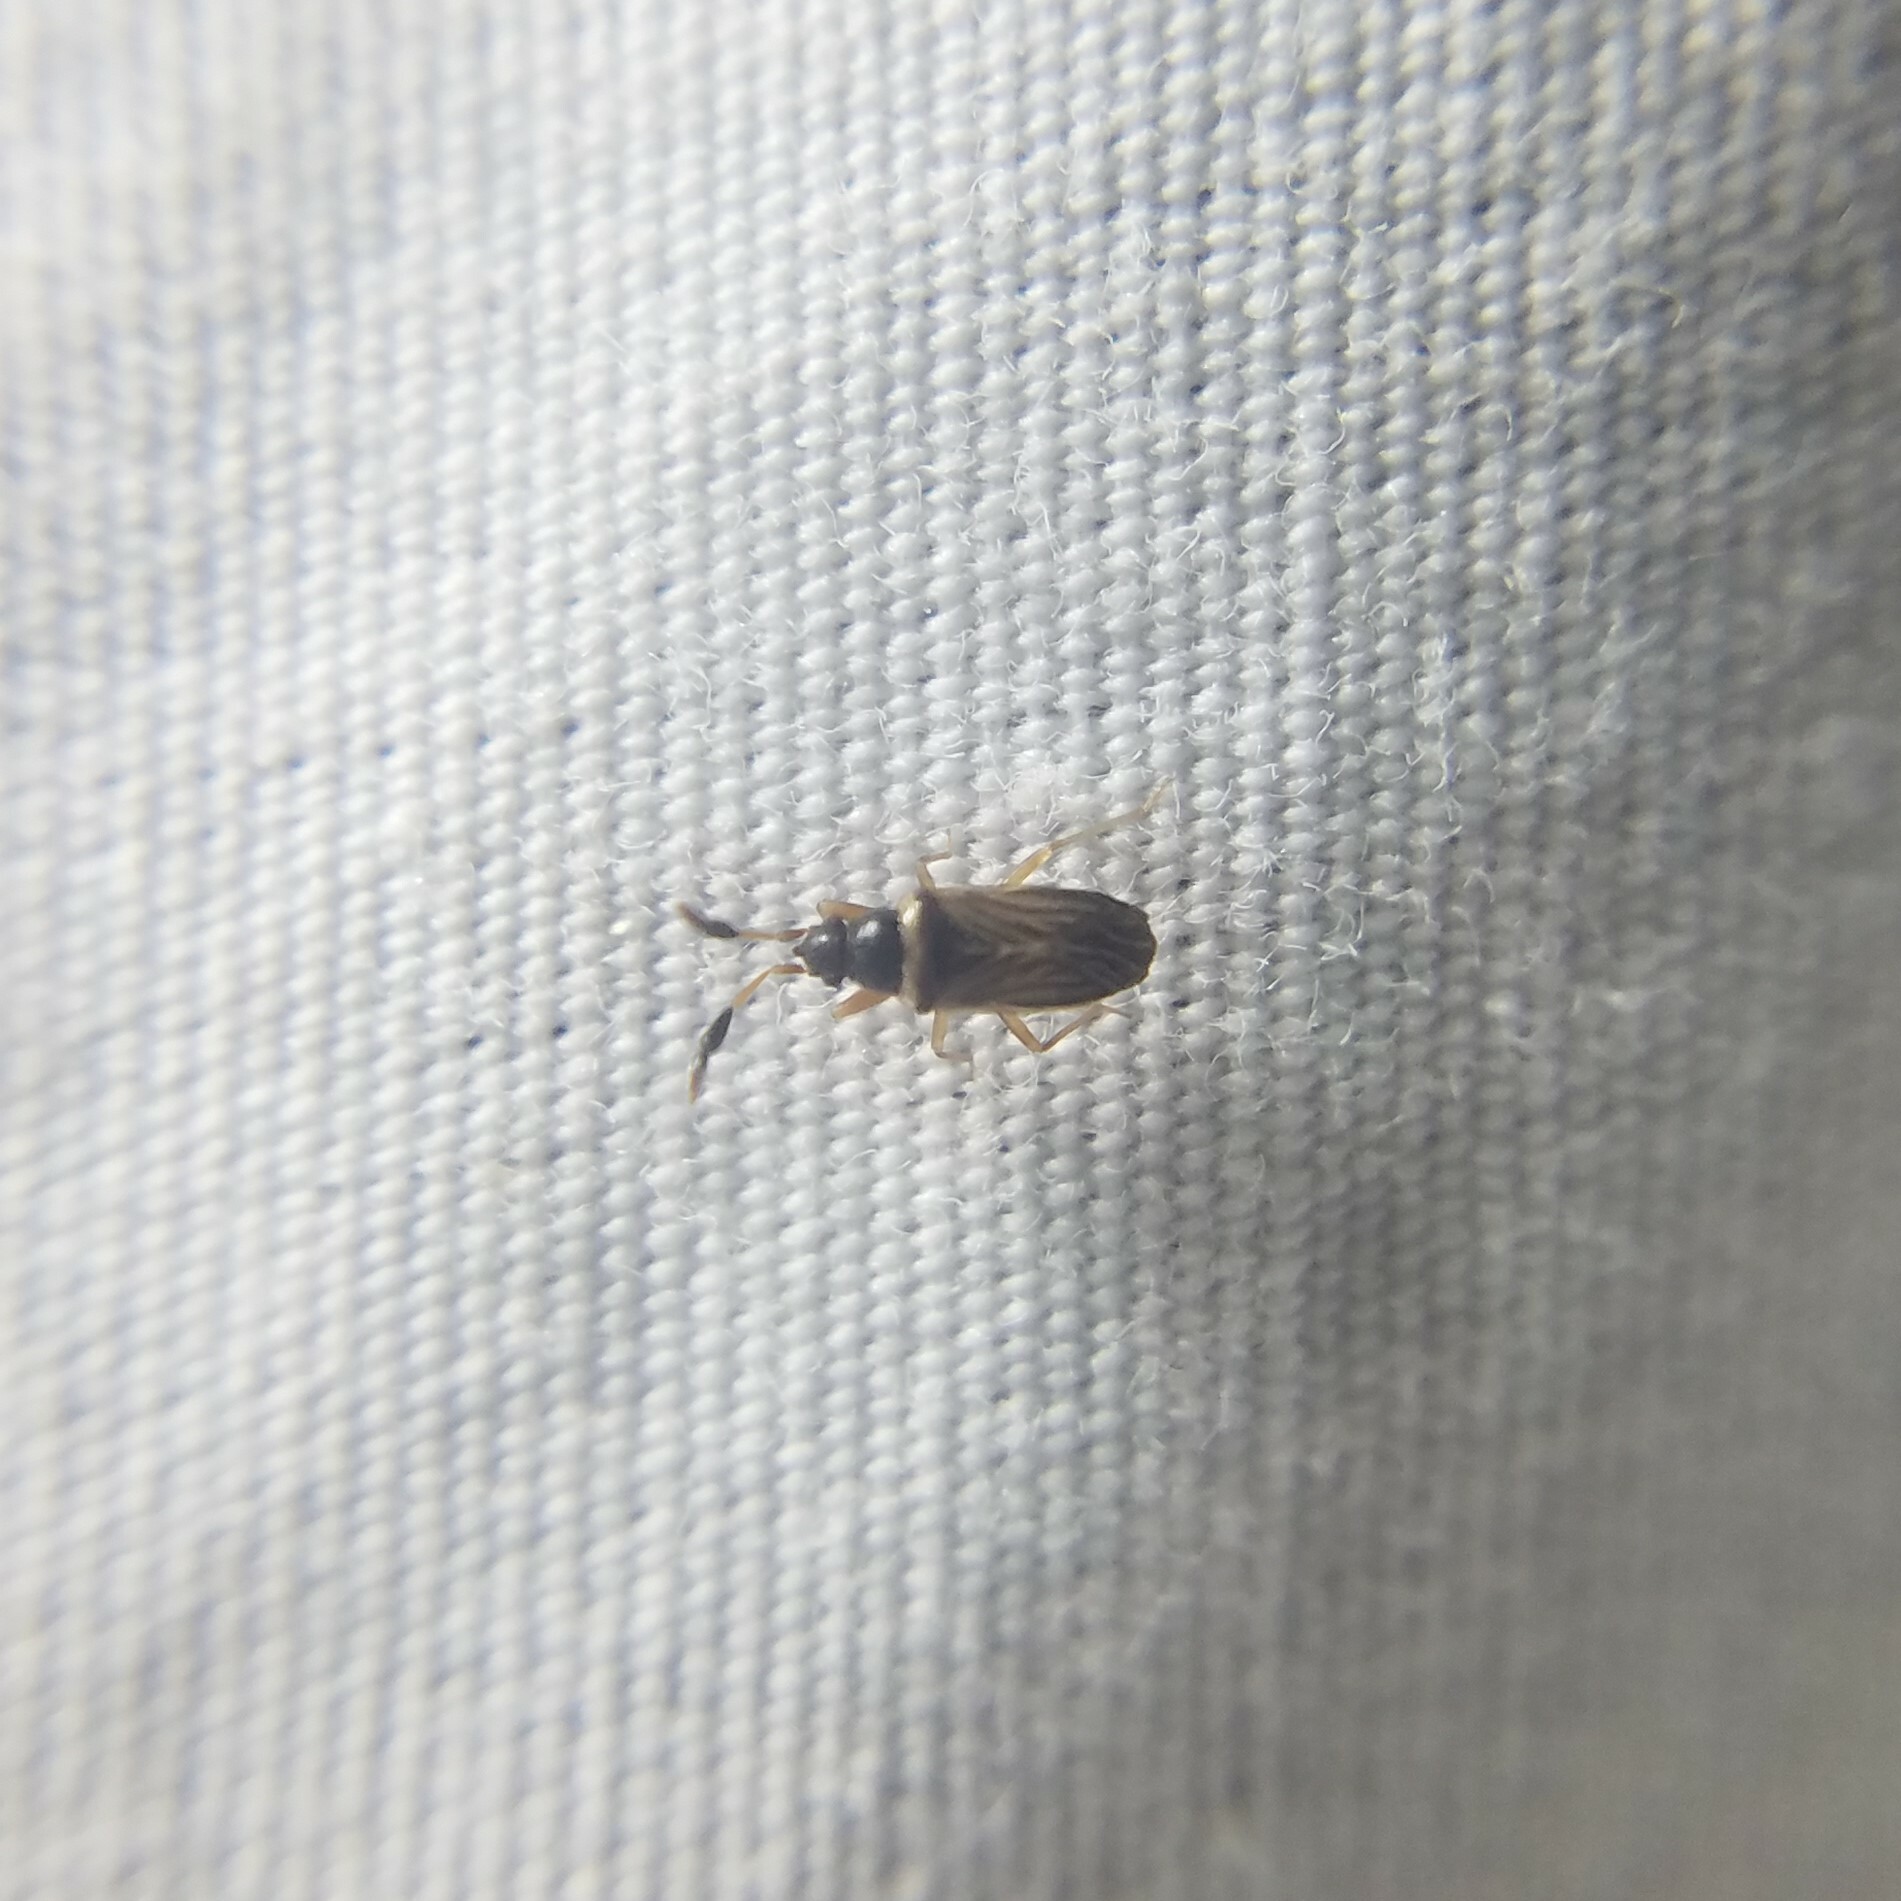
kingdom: Animalia
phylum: Arthropoda
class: Insecta
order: Hemiptera
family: Rhyparochromidae
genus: Ptochiomera
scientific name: Ptochiomera nodosa
